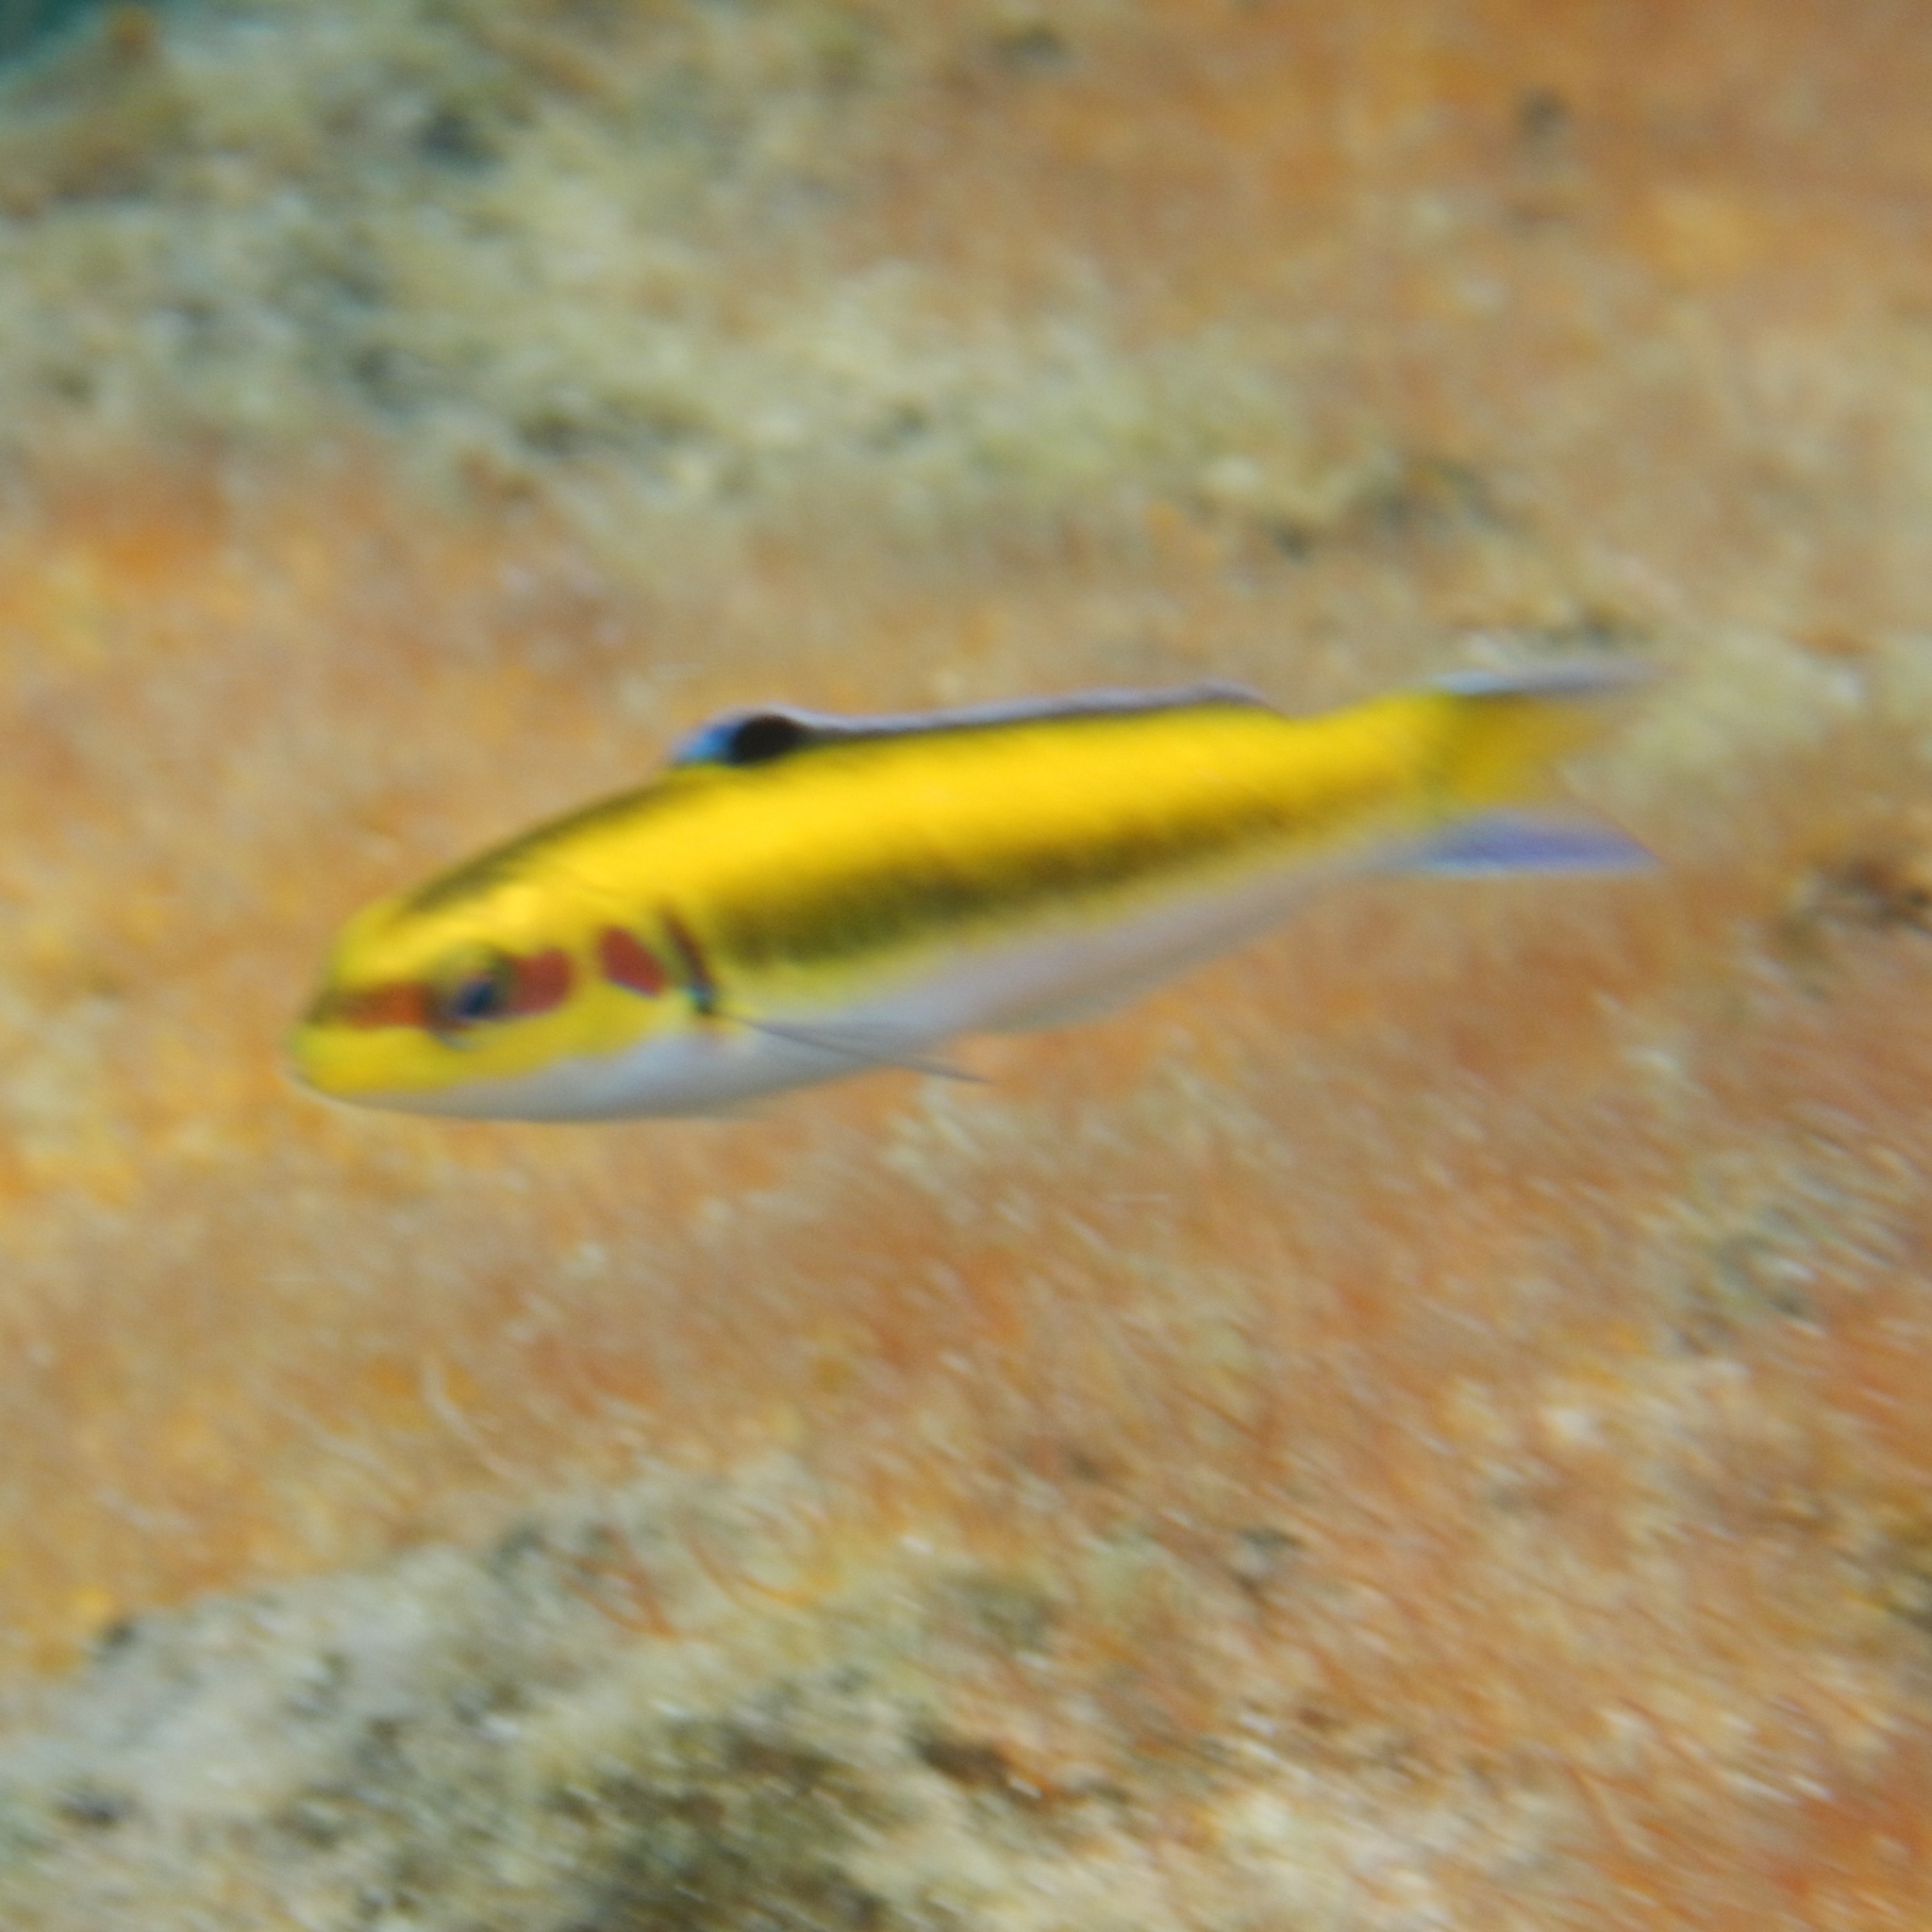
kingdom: Animalia
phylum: Chordata
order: Perciformes
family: Labridae
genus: Thalassoma
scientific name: Thalassoma bifasciatum
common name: Bluehead wrasse
